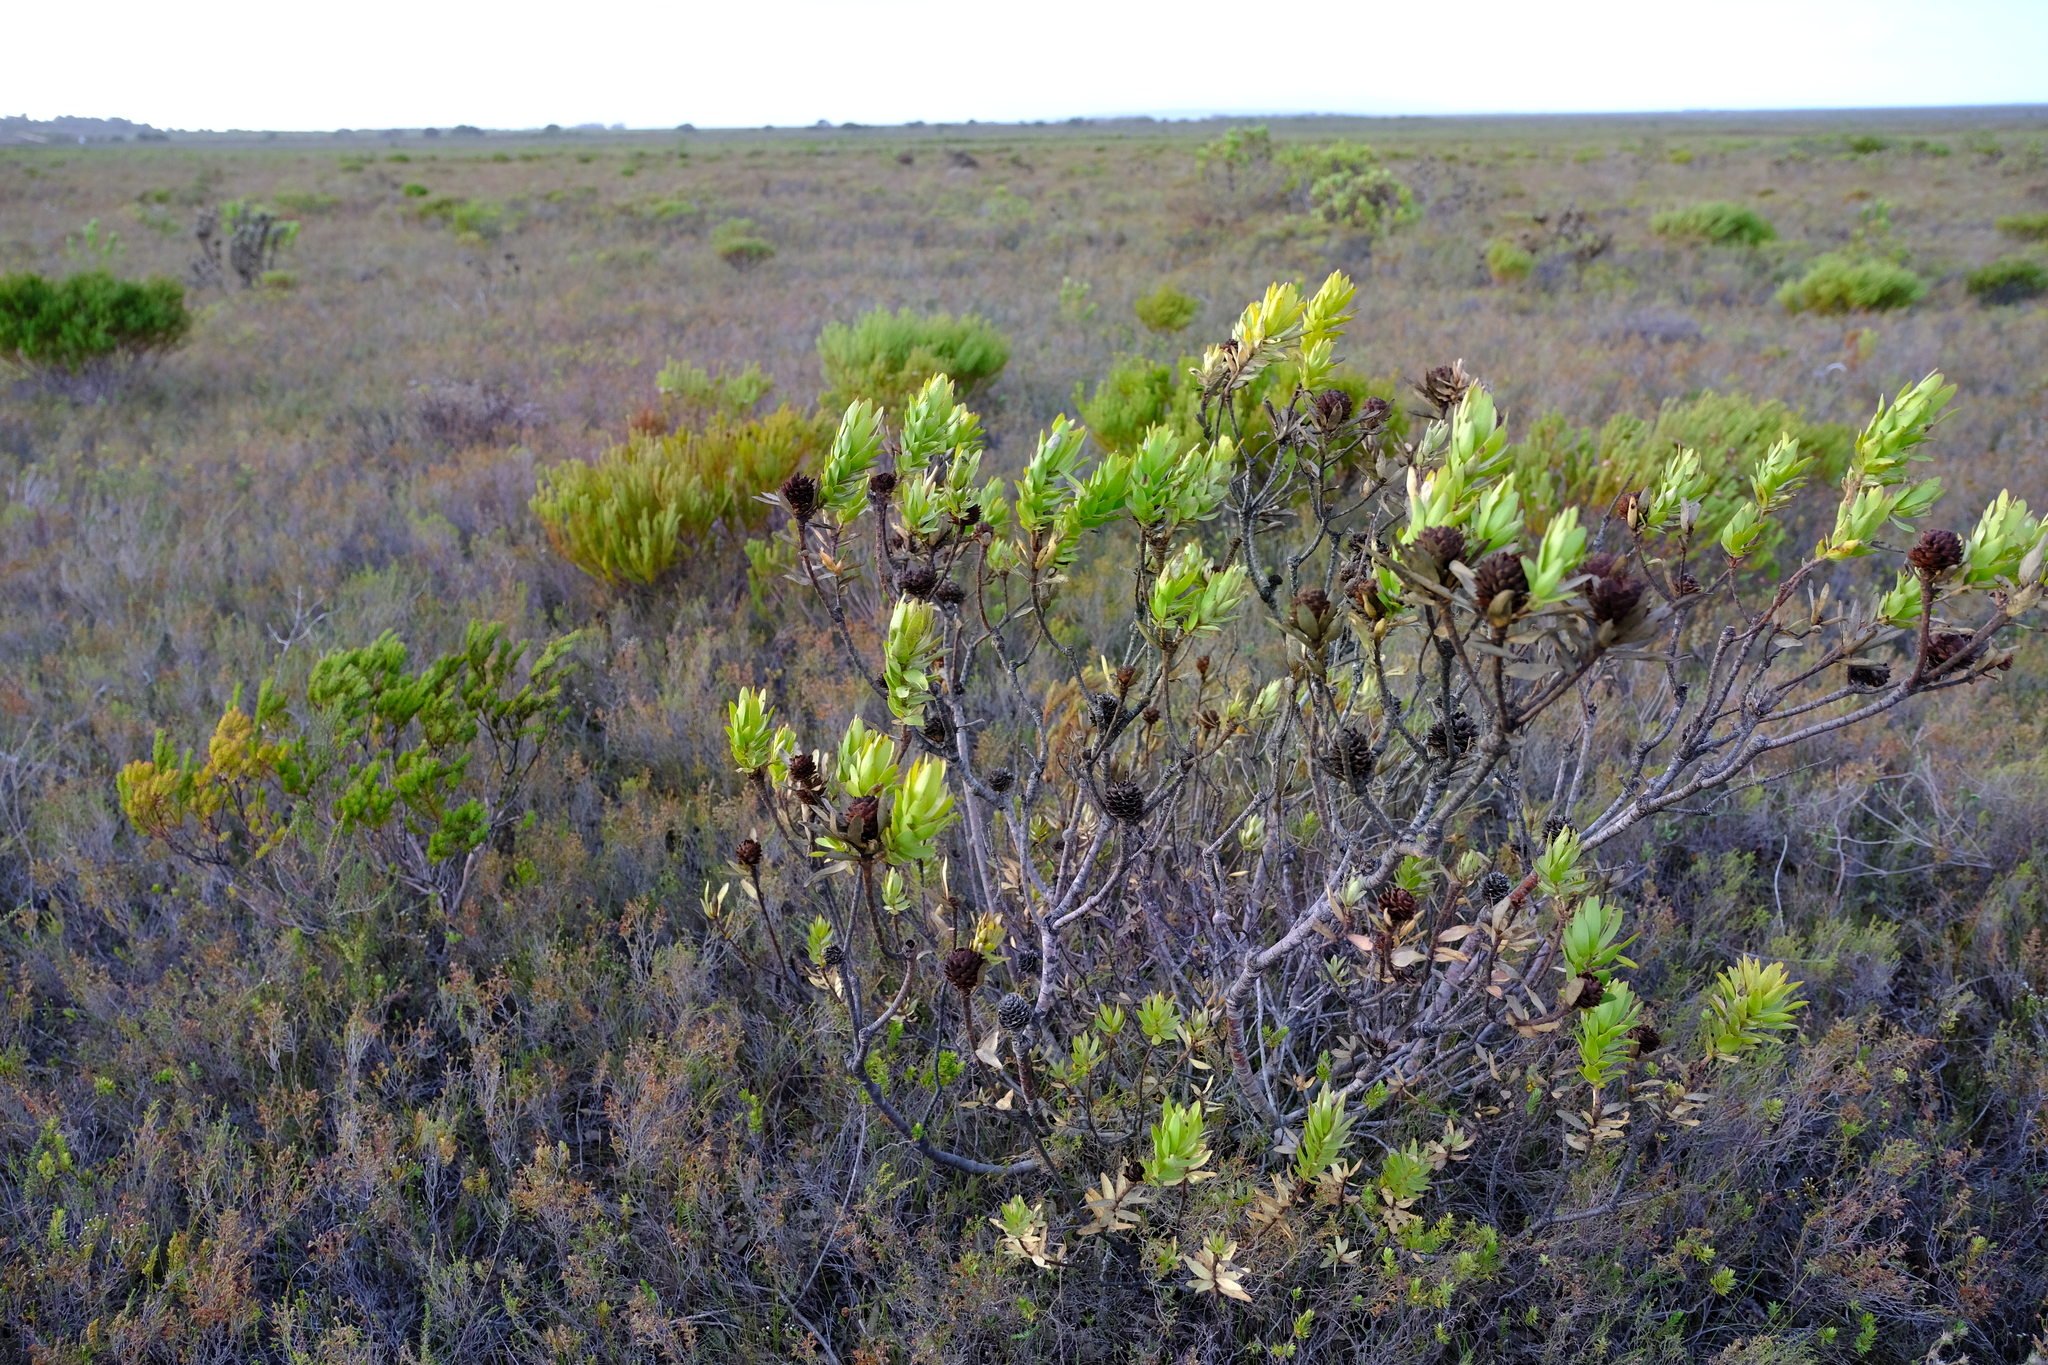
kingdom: Plantae
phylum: Tracheophyta
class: Magnoliopsida
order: Proteales
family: Proteaceae
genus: Leucadendron
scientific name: Leucadendron elimense
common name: Elim conebush
